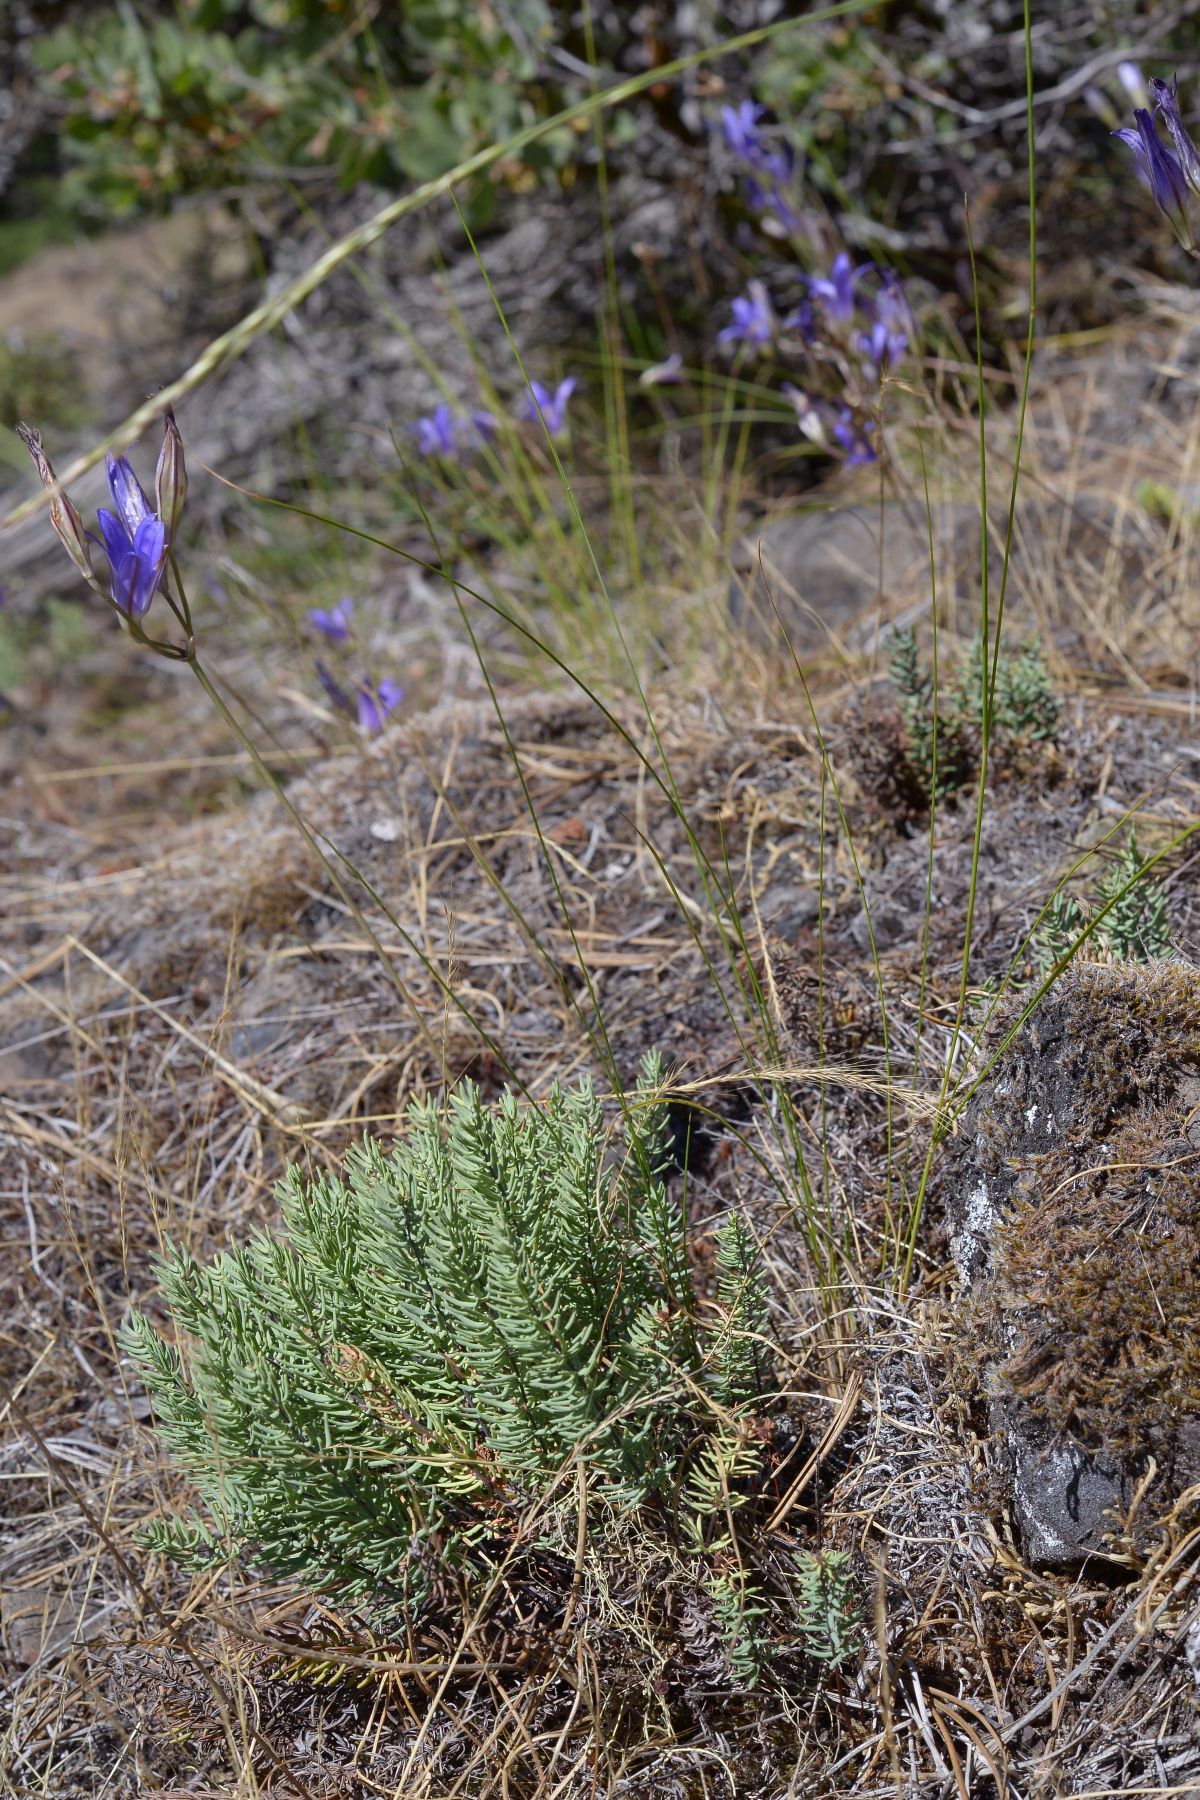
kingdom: Plantae
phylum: Tracheophyta
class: Polypodiopsida
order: Polypodiales
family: Pteridaceae
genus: Pellaea
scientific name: Pellaea brachyptera
